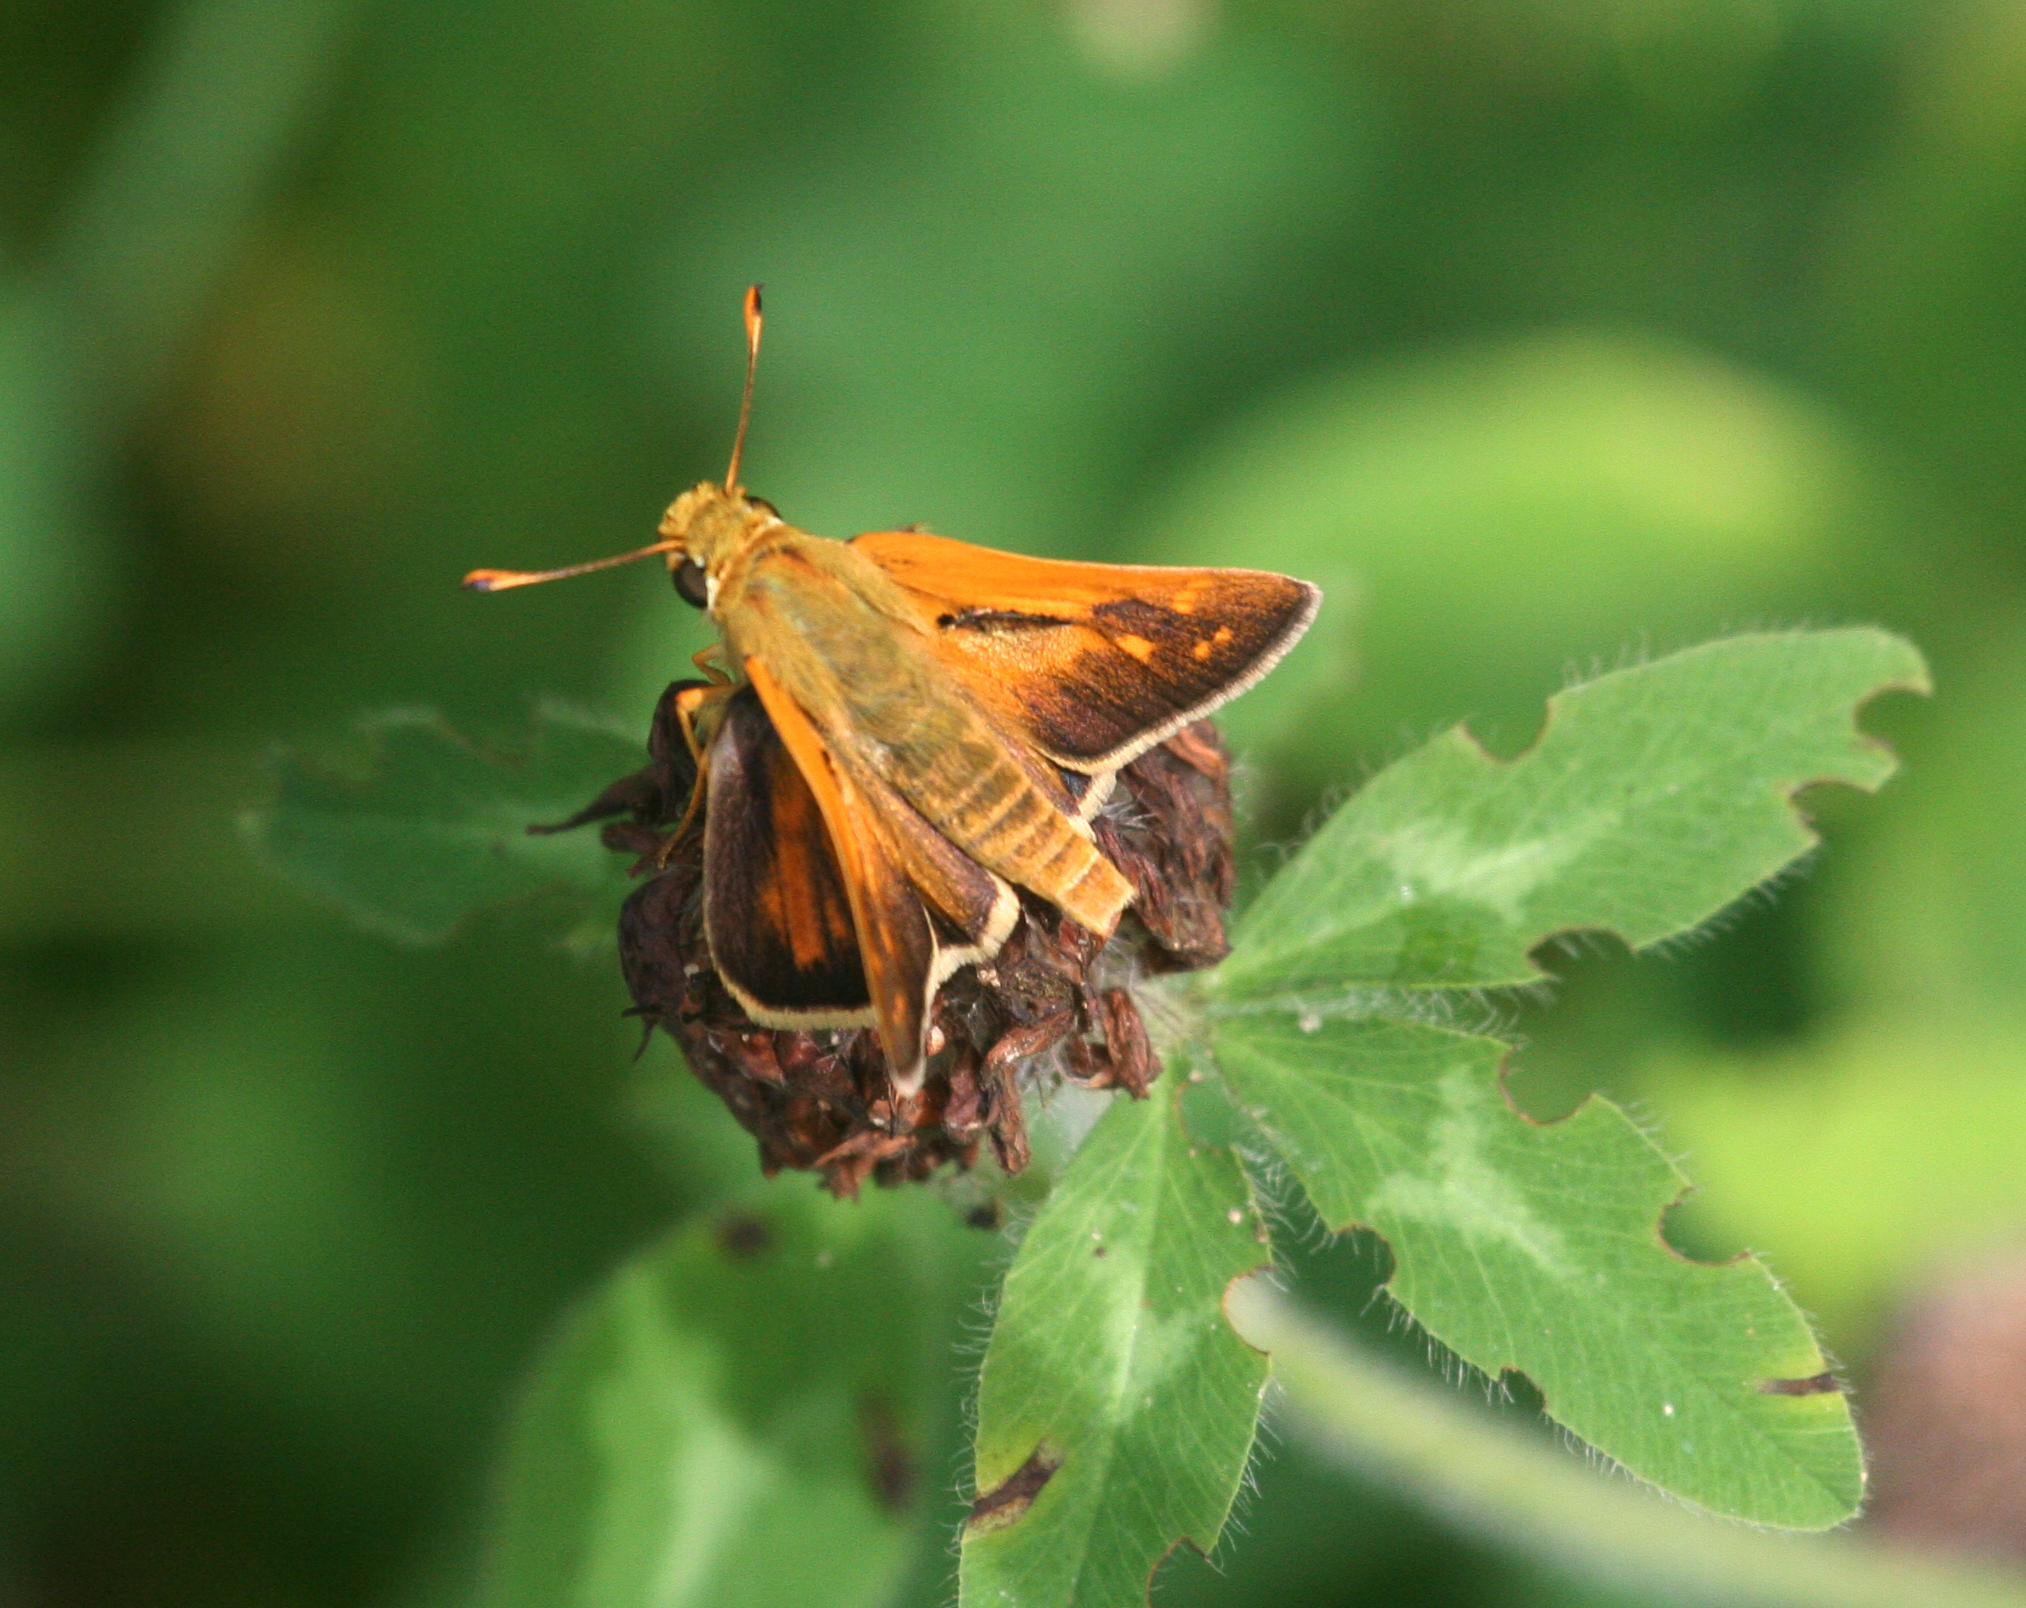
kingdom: Animalia
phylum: Arthropoda
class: Insecta
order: Lepidoptera
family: Hesperiidae
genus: Hesperia
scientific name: Hesperia florinda
